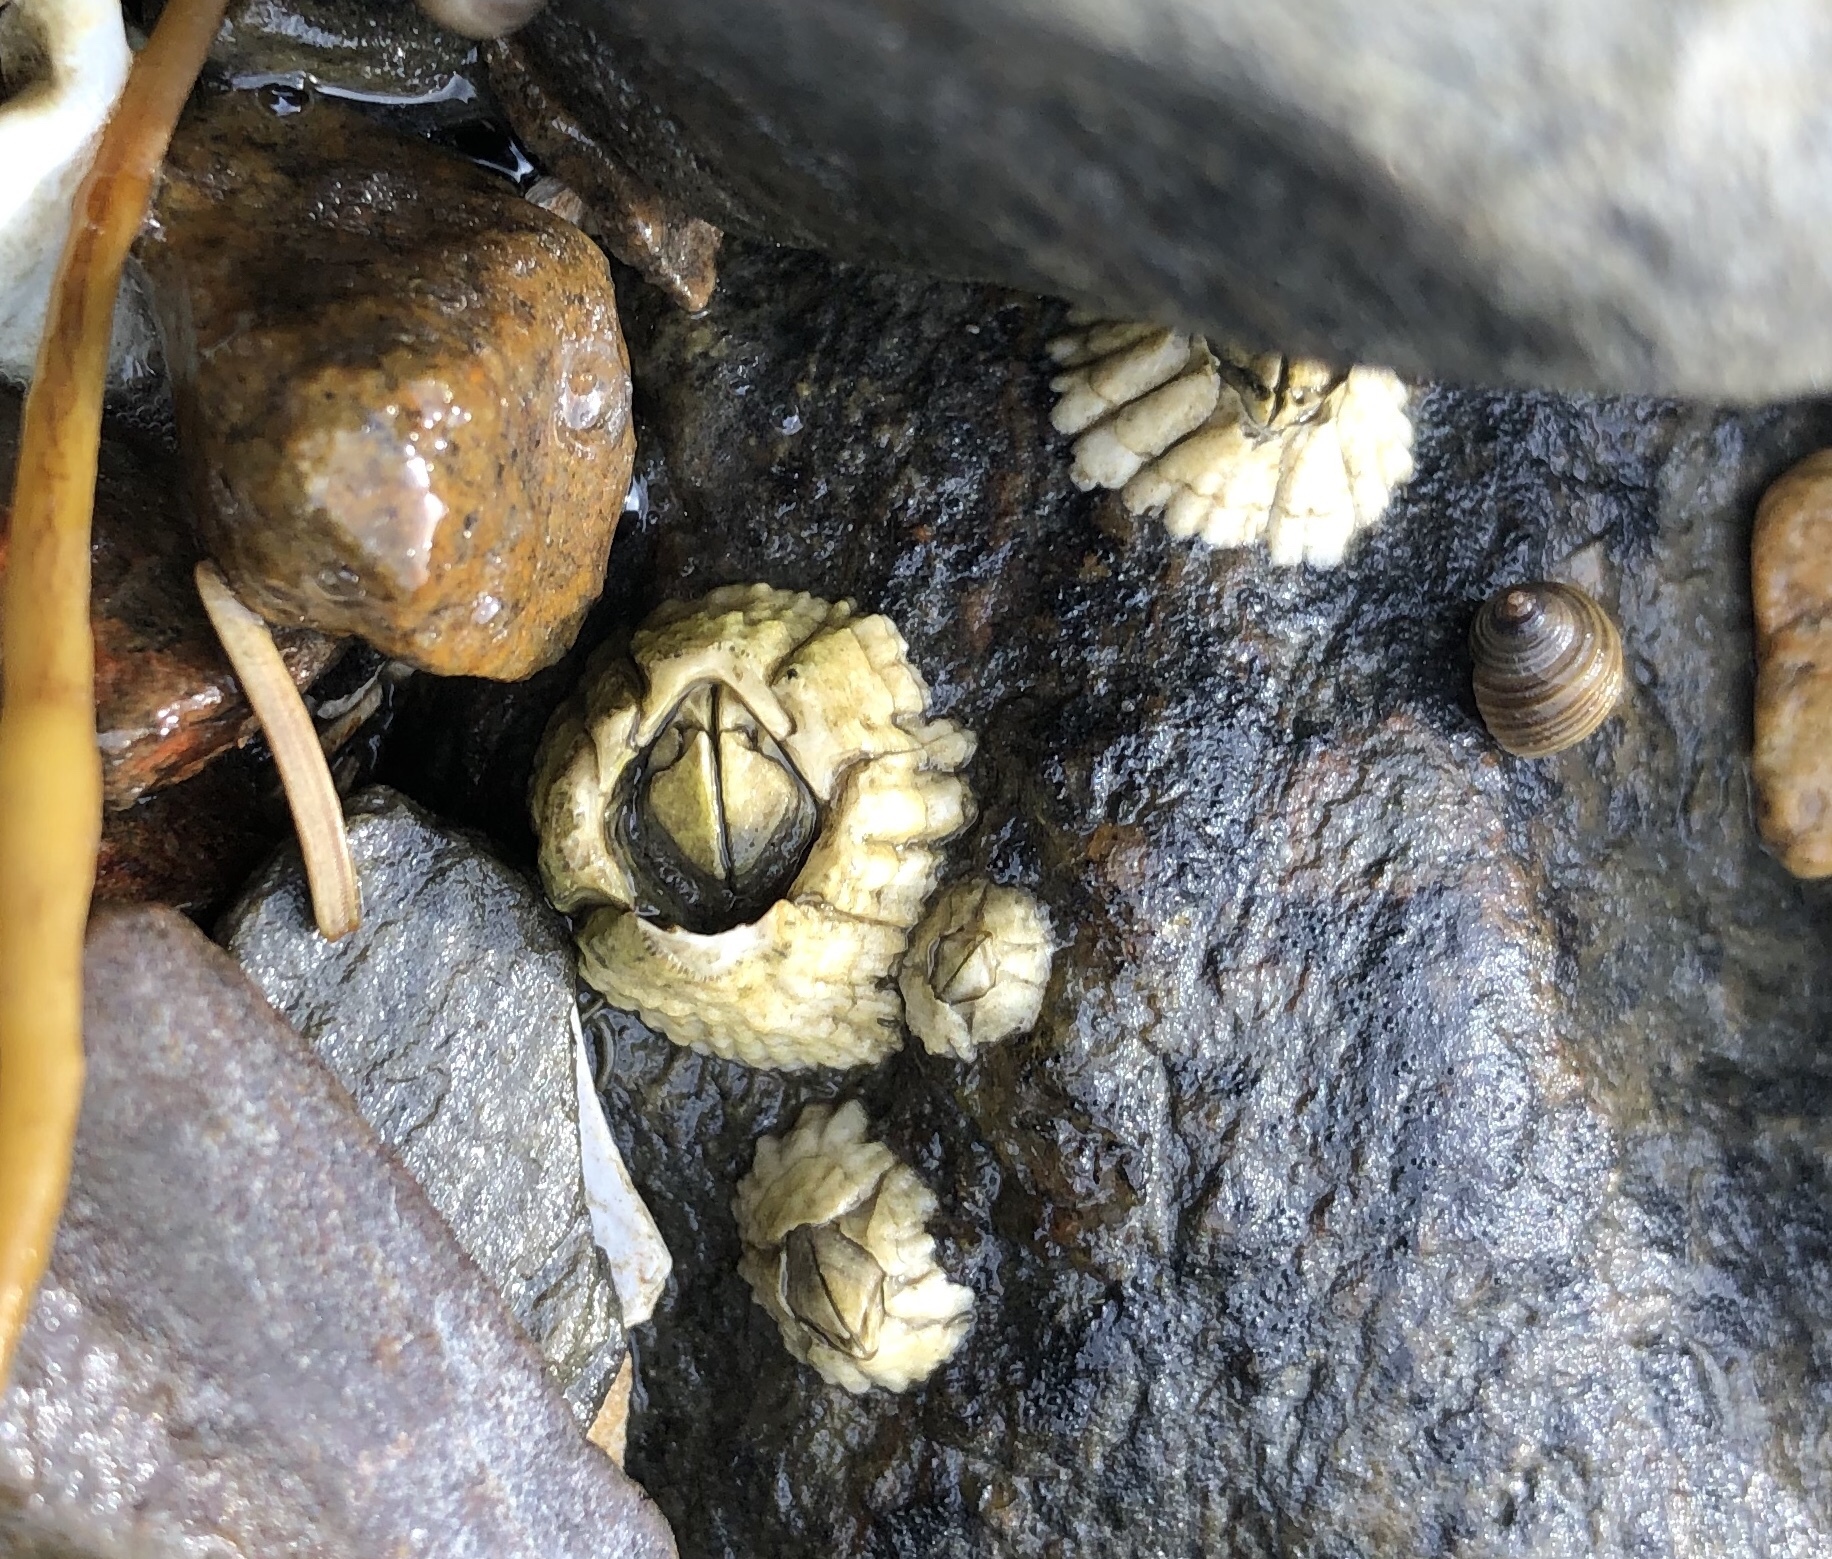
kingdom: Animalia
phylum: Arthropoda
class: Maxillopoda
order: Sessilia
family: Archaeobalanidae
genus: Semibalanus
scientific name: Semibalanus balanoides
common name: Acorn barnacle
